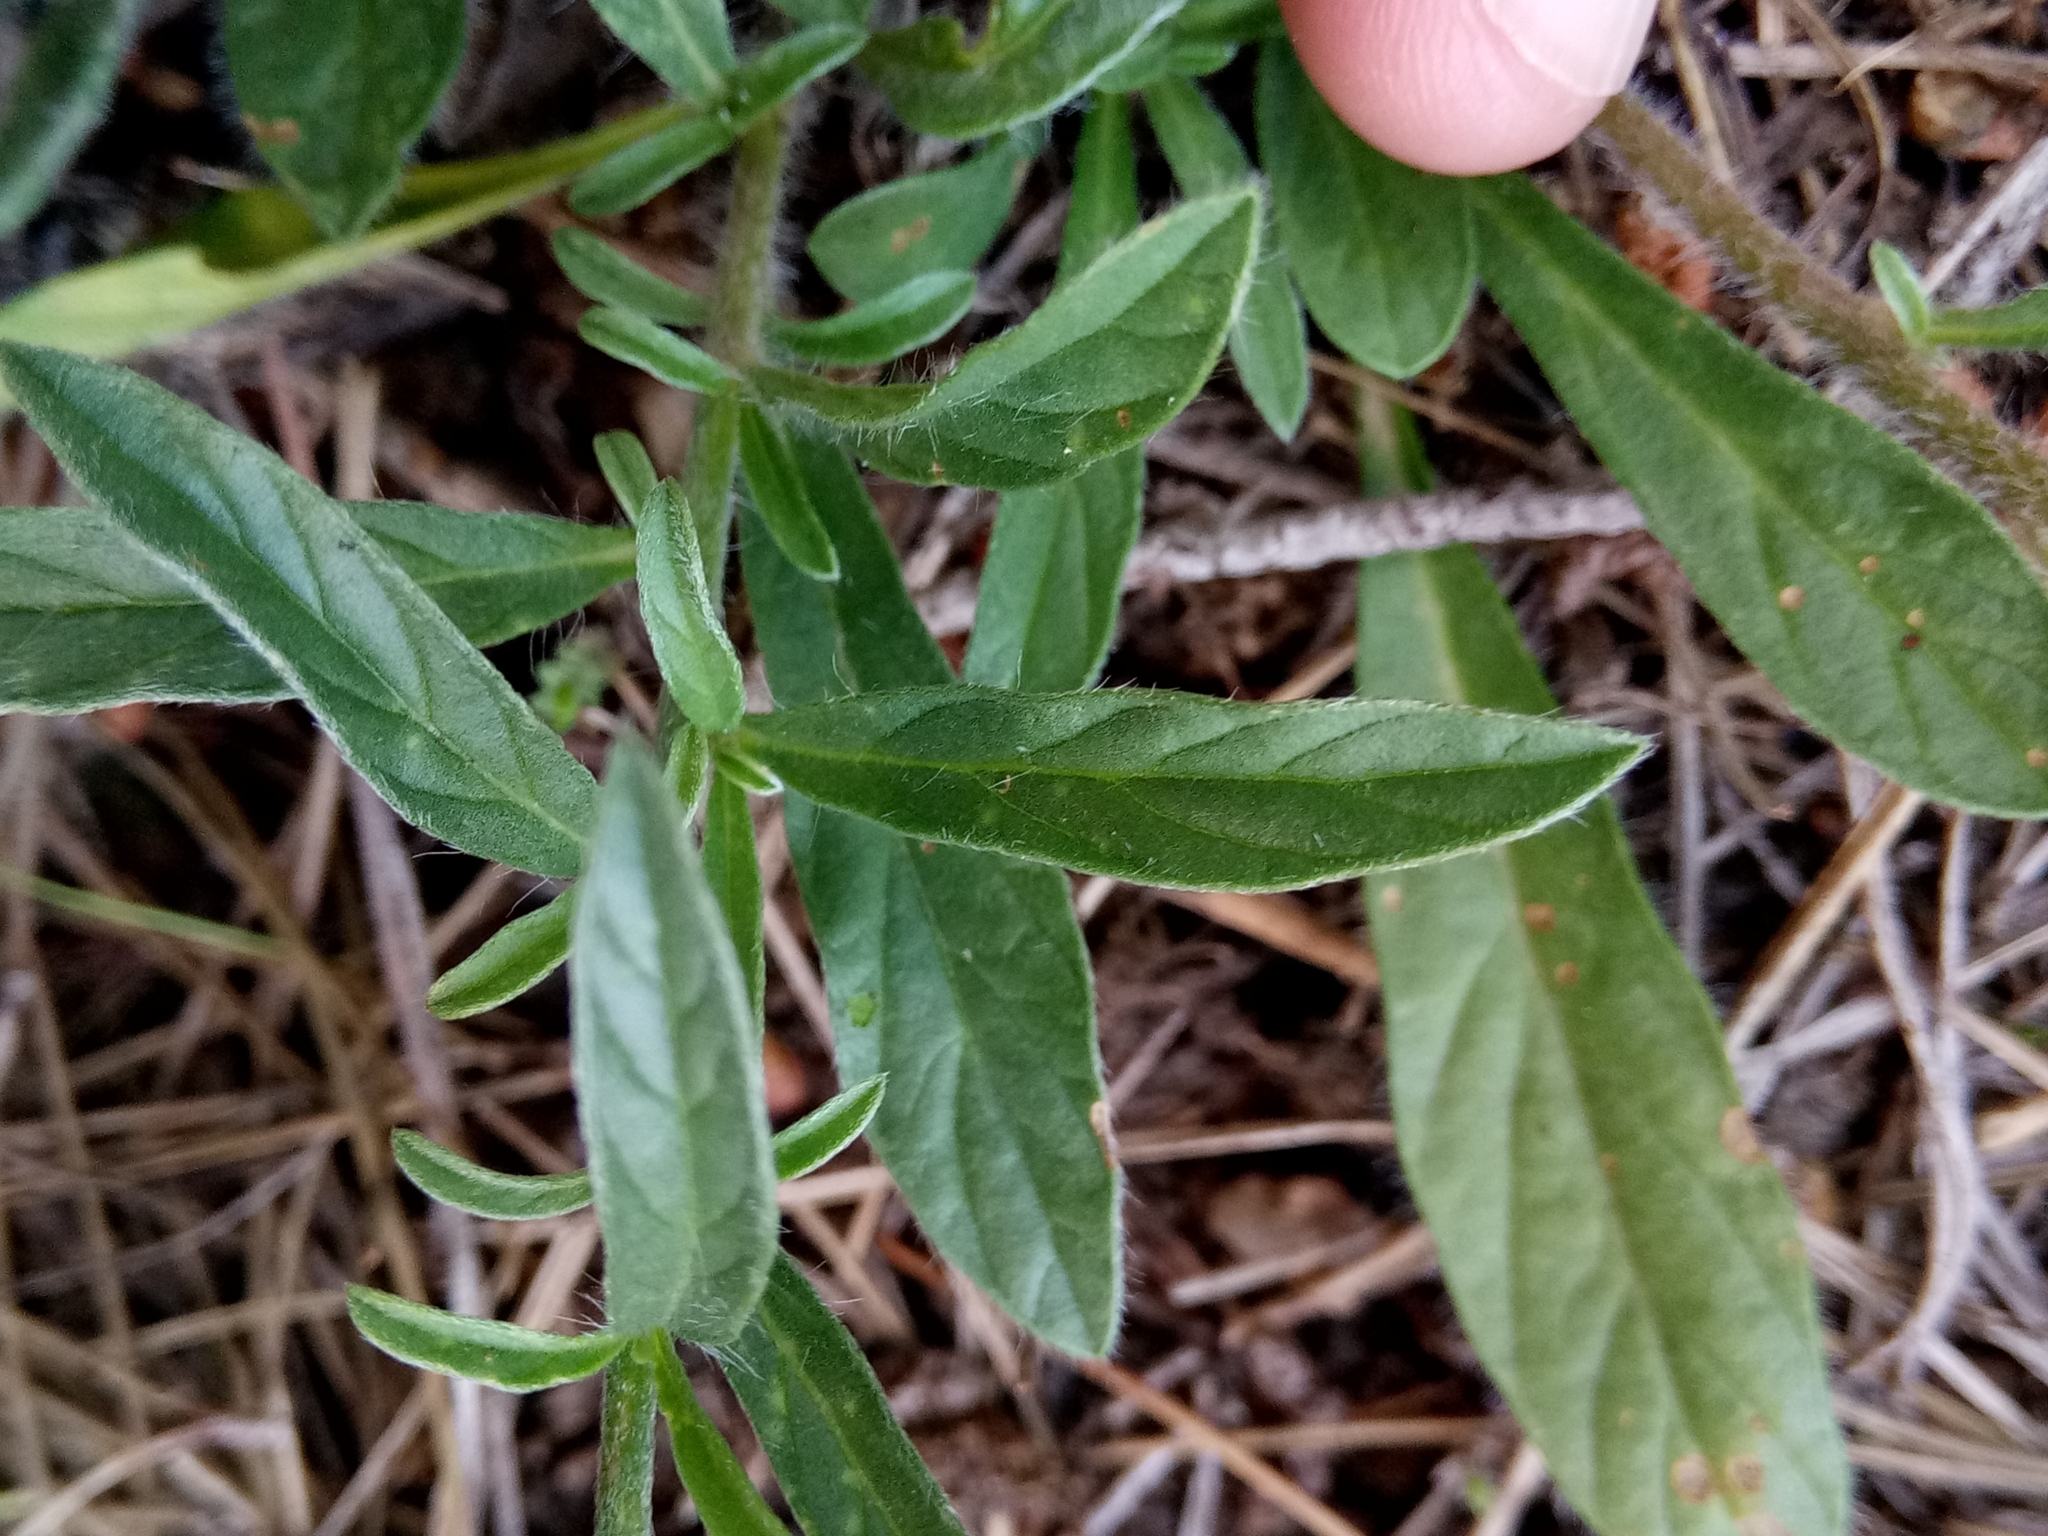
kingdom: Plantae
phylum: Tracheophyta
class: Magnoliopsida
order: Solanales
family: Convolvulaceae
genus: Convolvulus
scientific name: Convolvulus cantabrica
